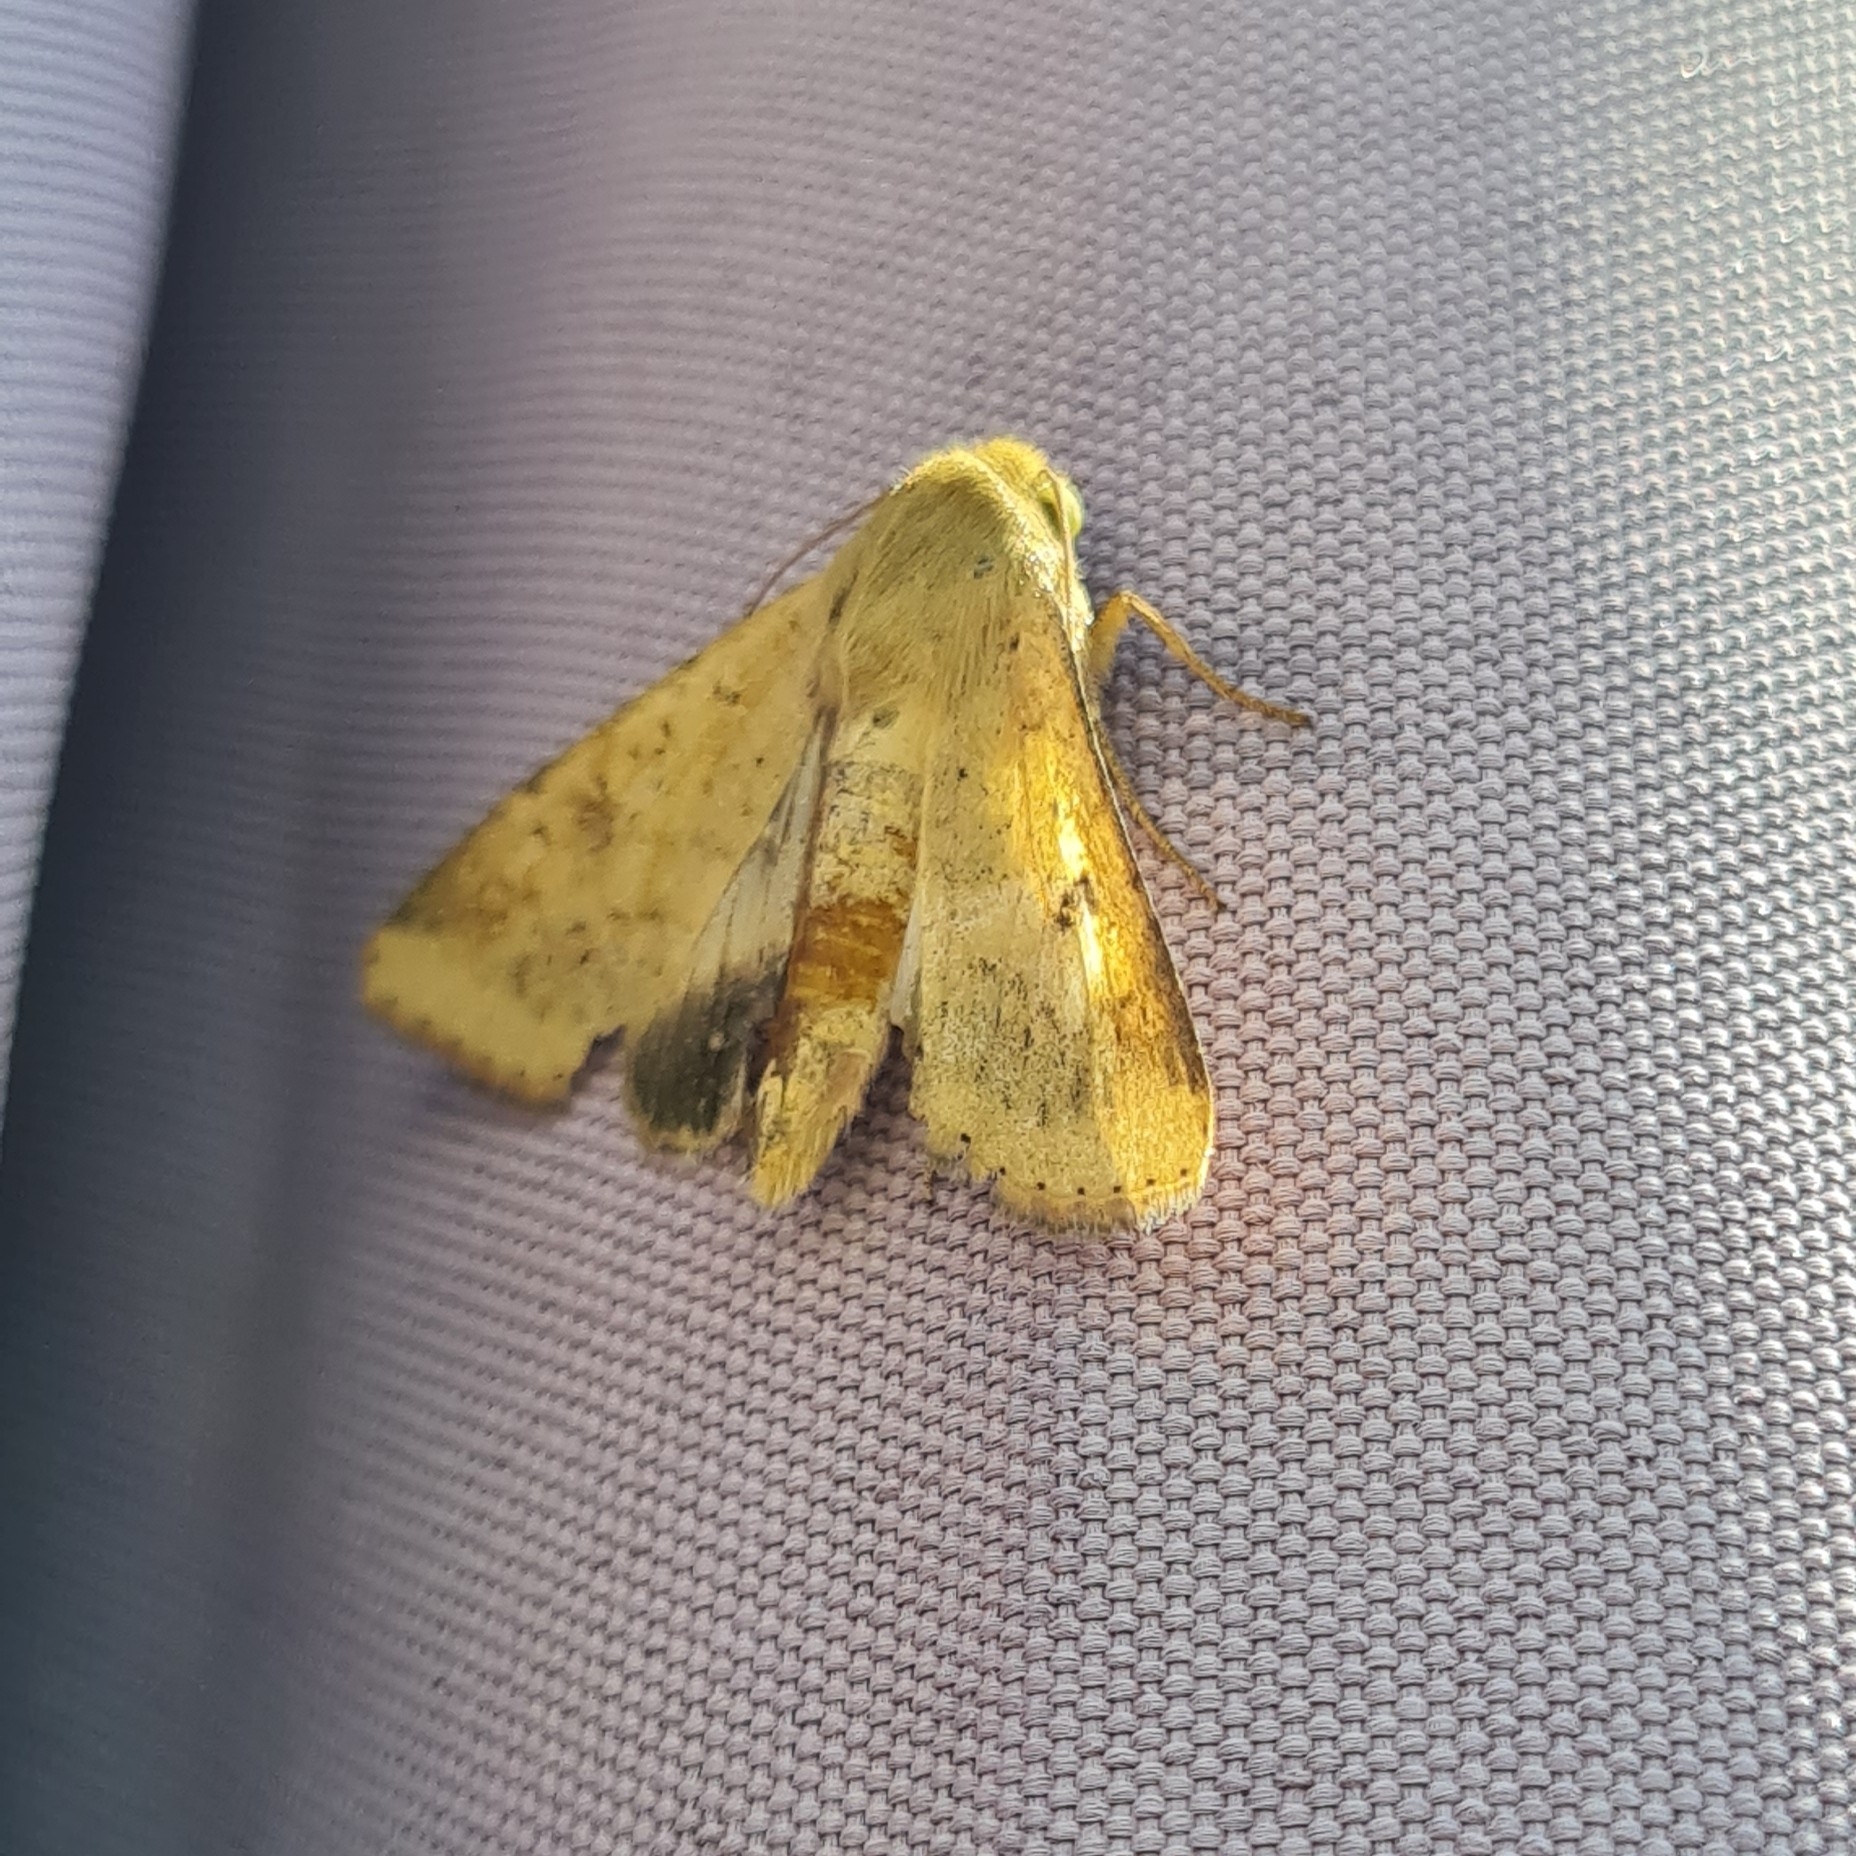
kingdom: Animalia
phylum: Arthropoda
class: Insecta
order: Lepidoptera
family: Noctuidae
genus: Helicoverpa
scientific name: Helicoverpa armigera
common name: Cotton bollworm
